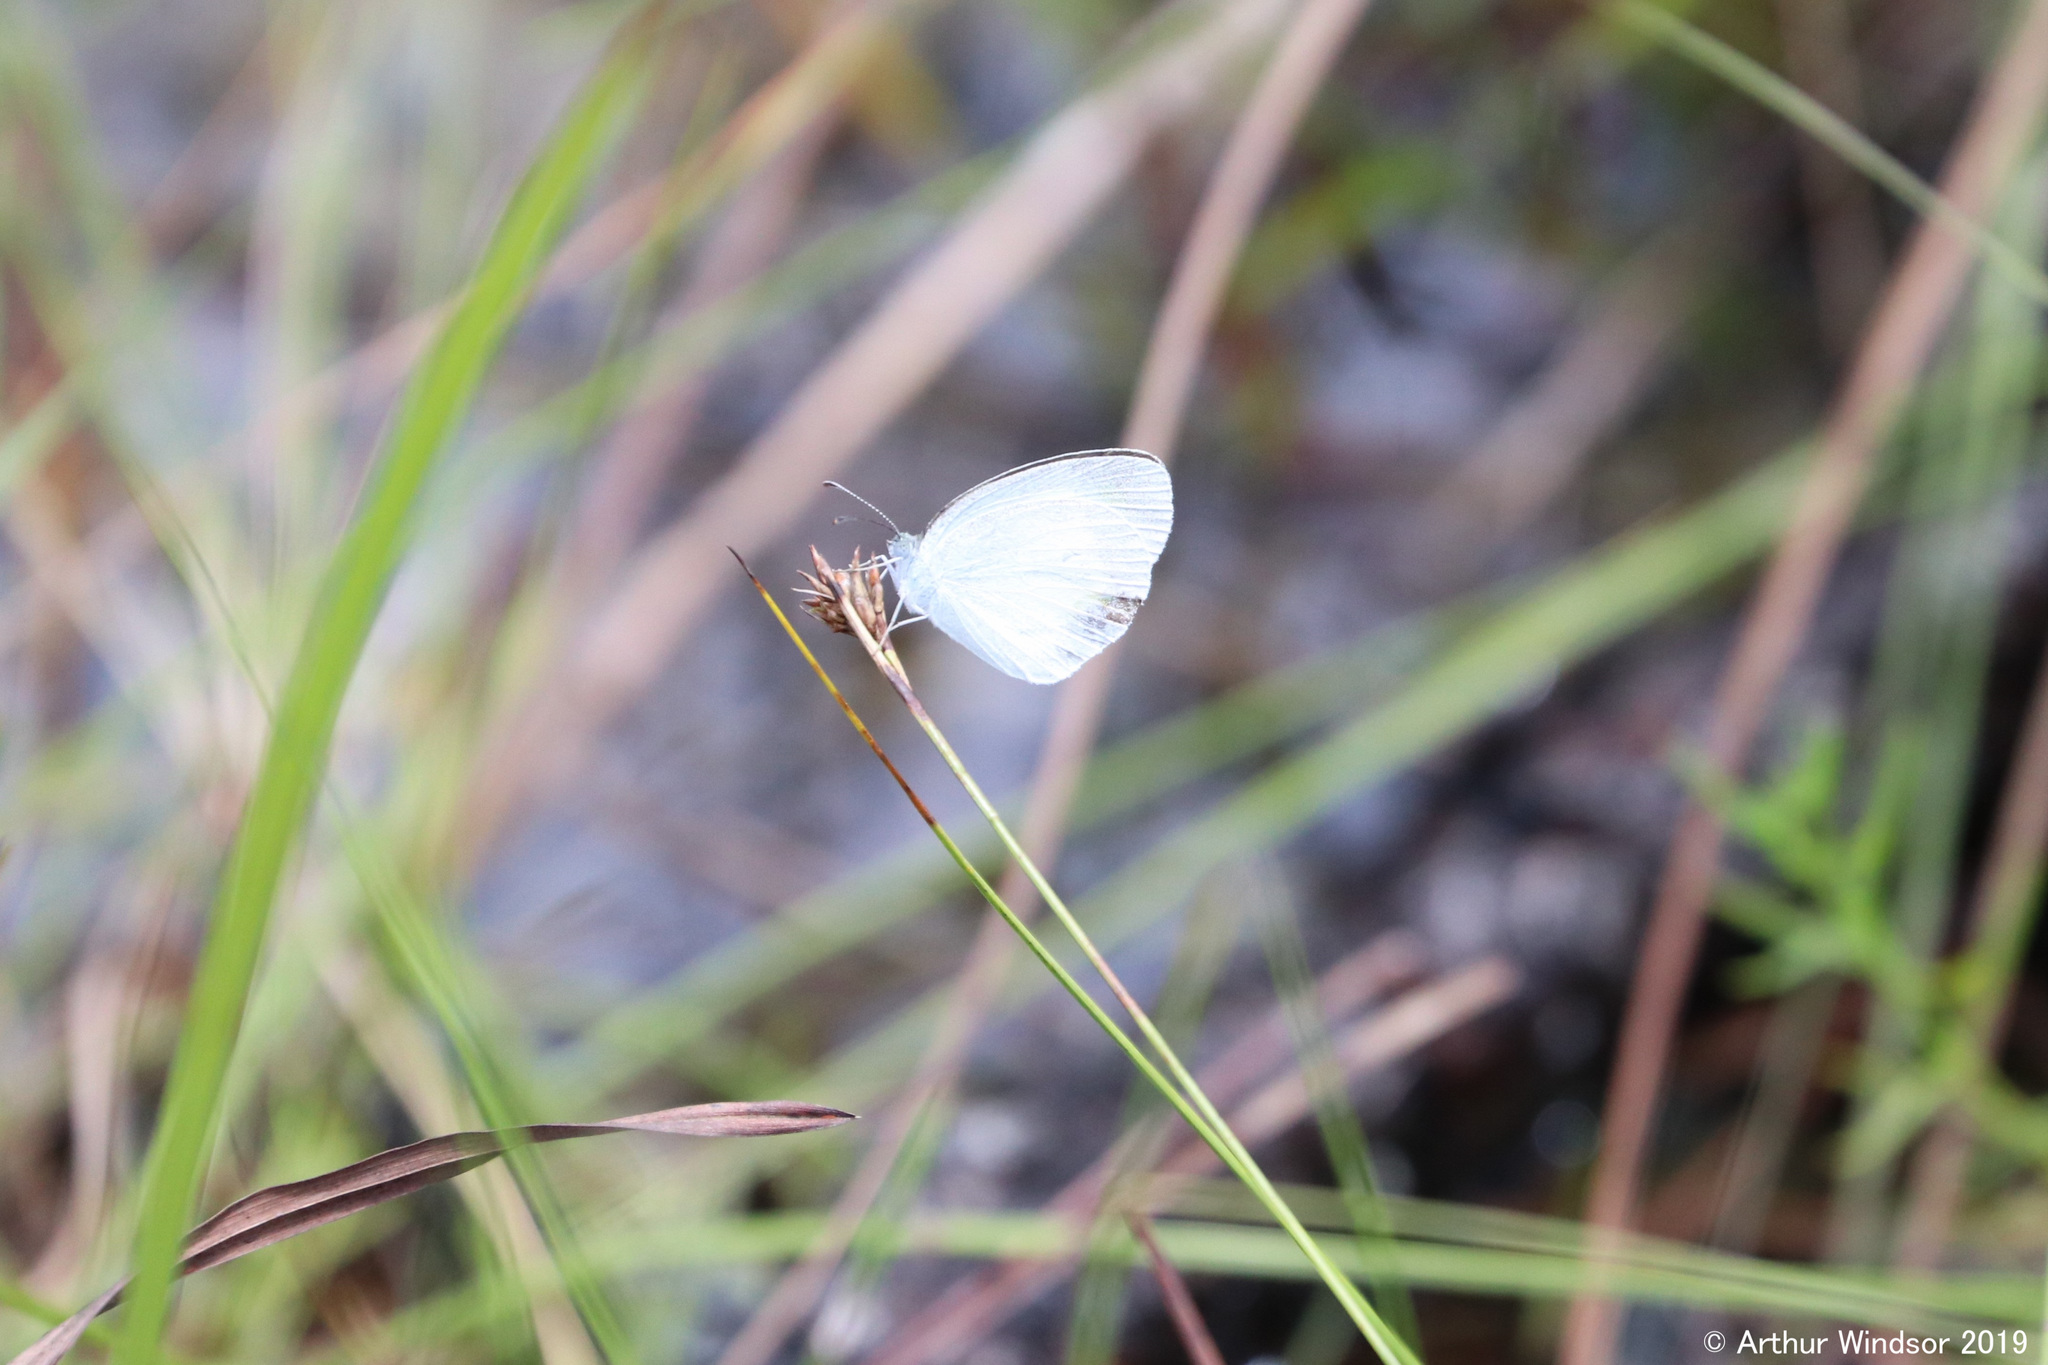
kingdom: Animalia
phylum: Arthropoda
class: Insecta
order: Lepidoptera
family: Pieridae
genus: Eurema
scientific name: Eurema daira
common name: Barred sulphur
